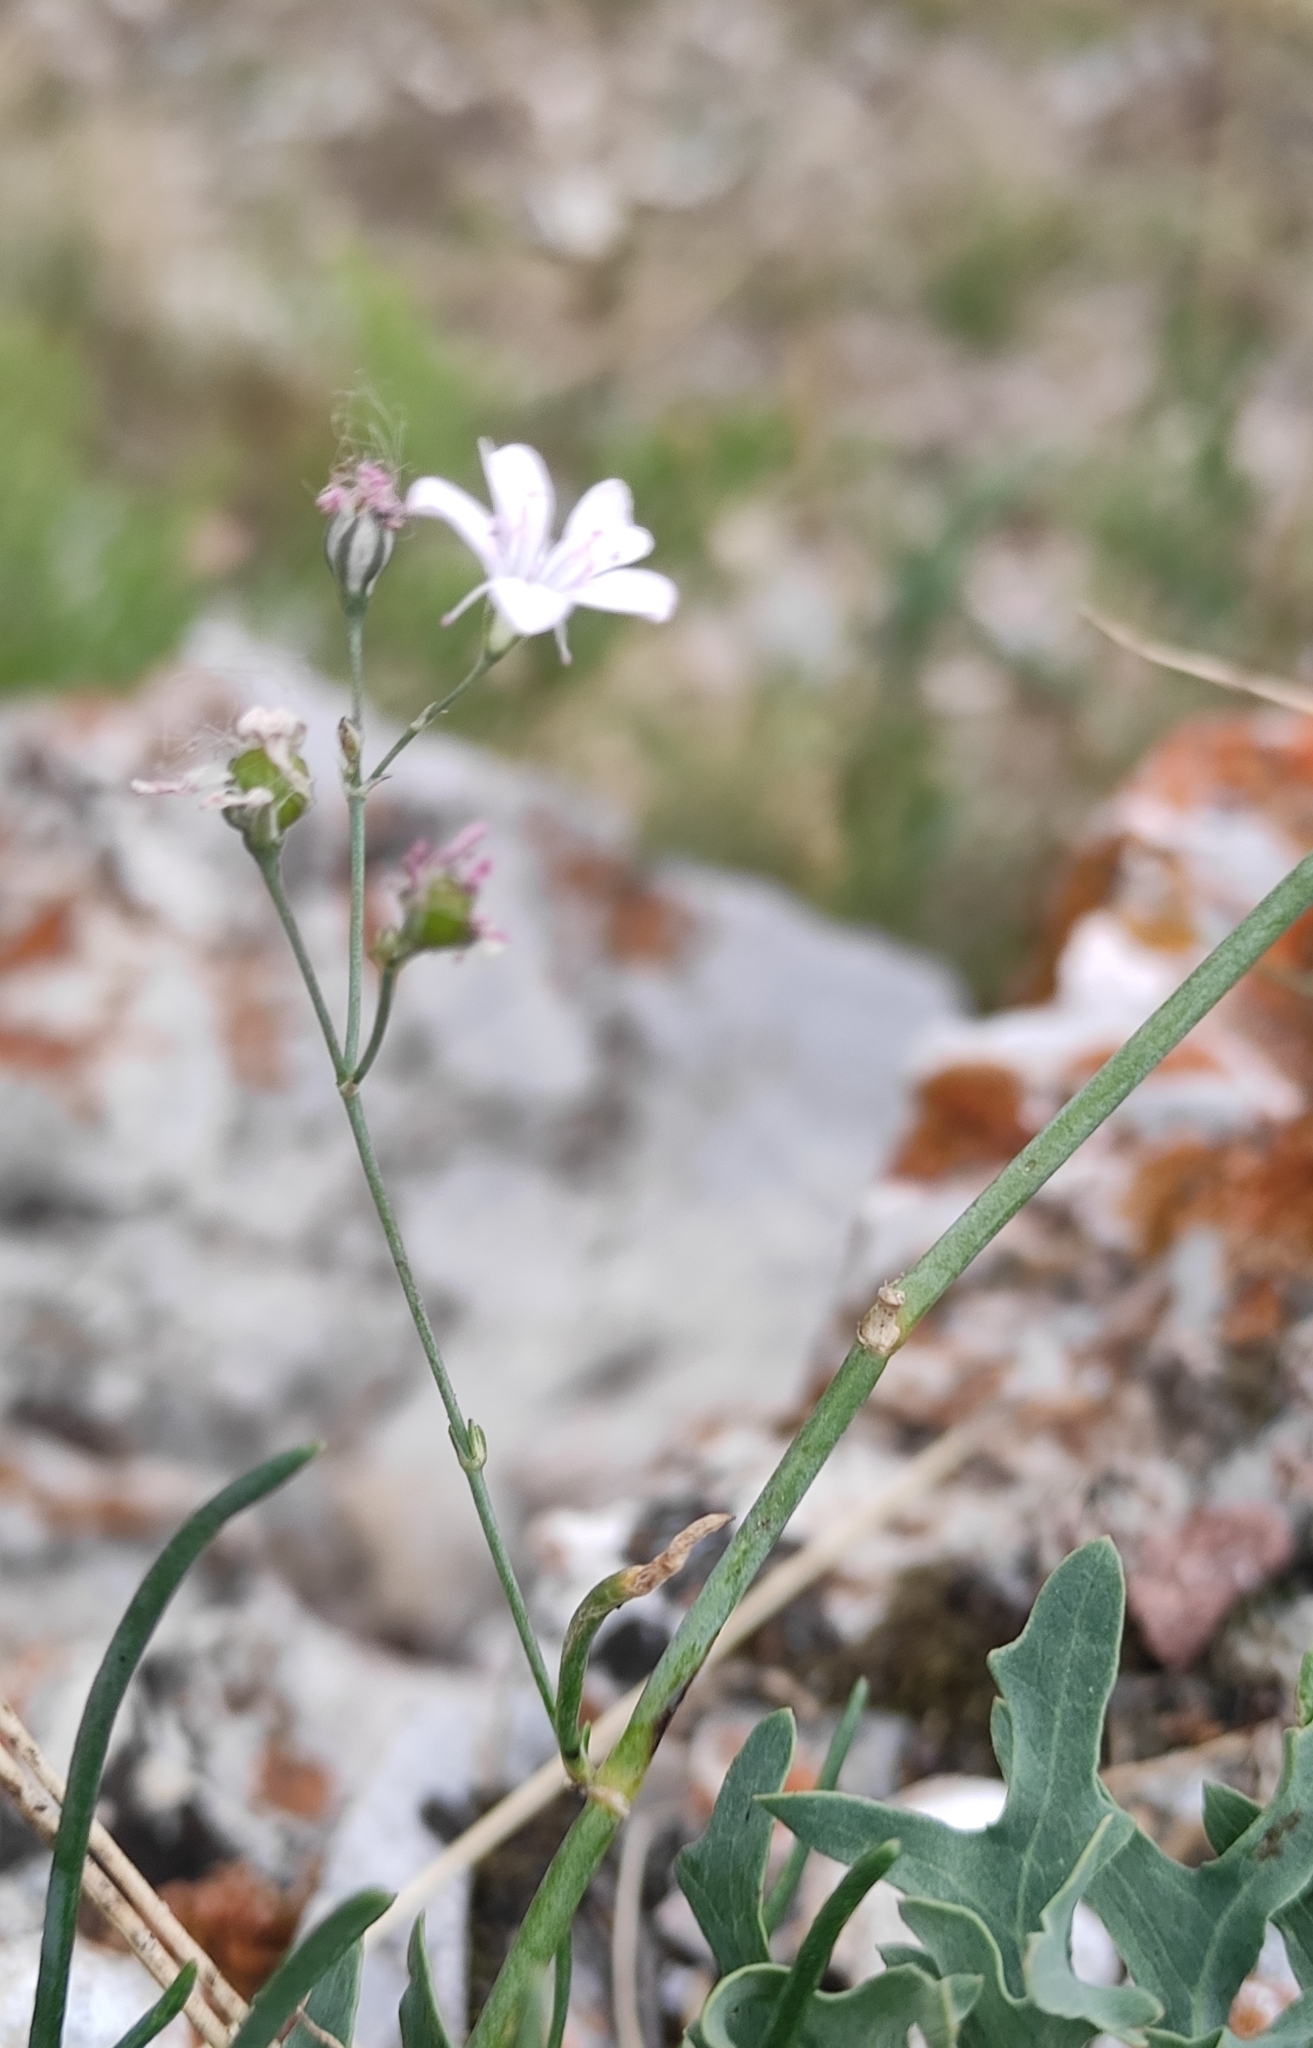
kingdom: Plantae
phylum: Tracheophyta
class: Magnoliopsida
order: Caryophyllales
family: Caryophyllaceae
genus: Gypsophila
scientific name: Gypsophila patrinii
